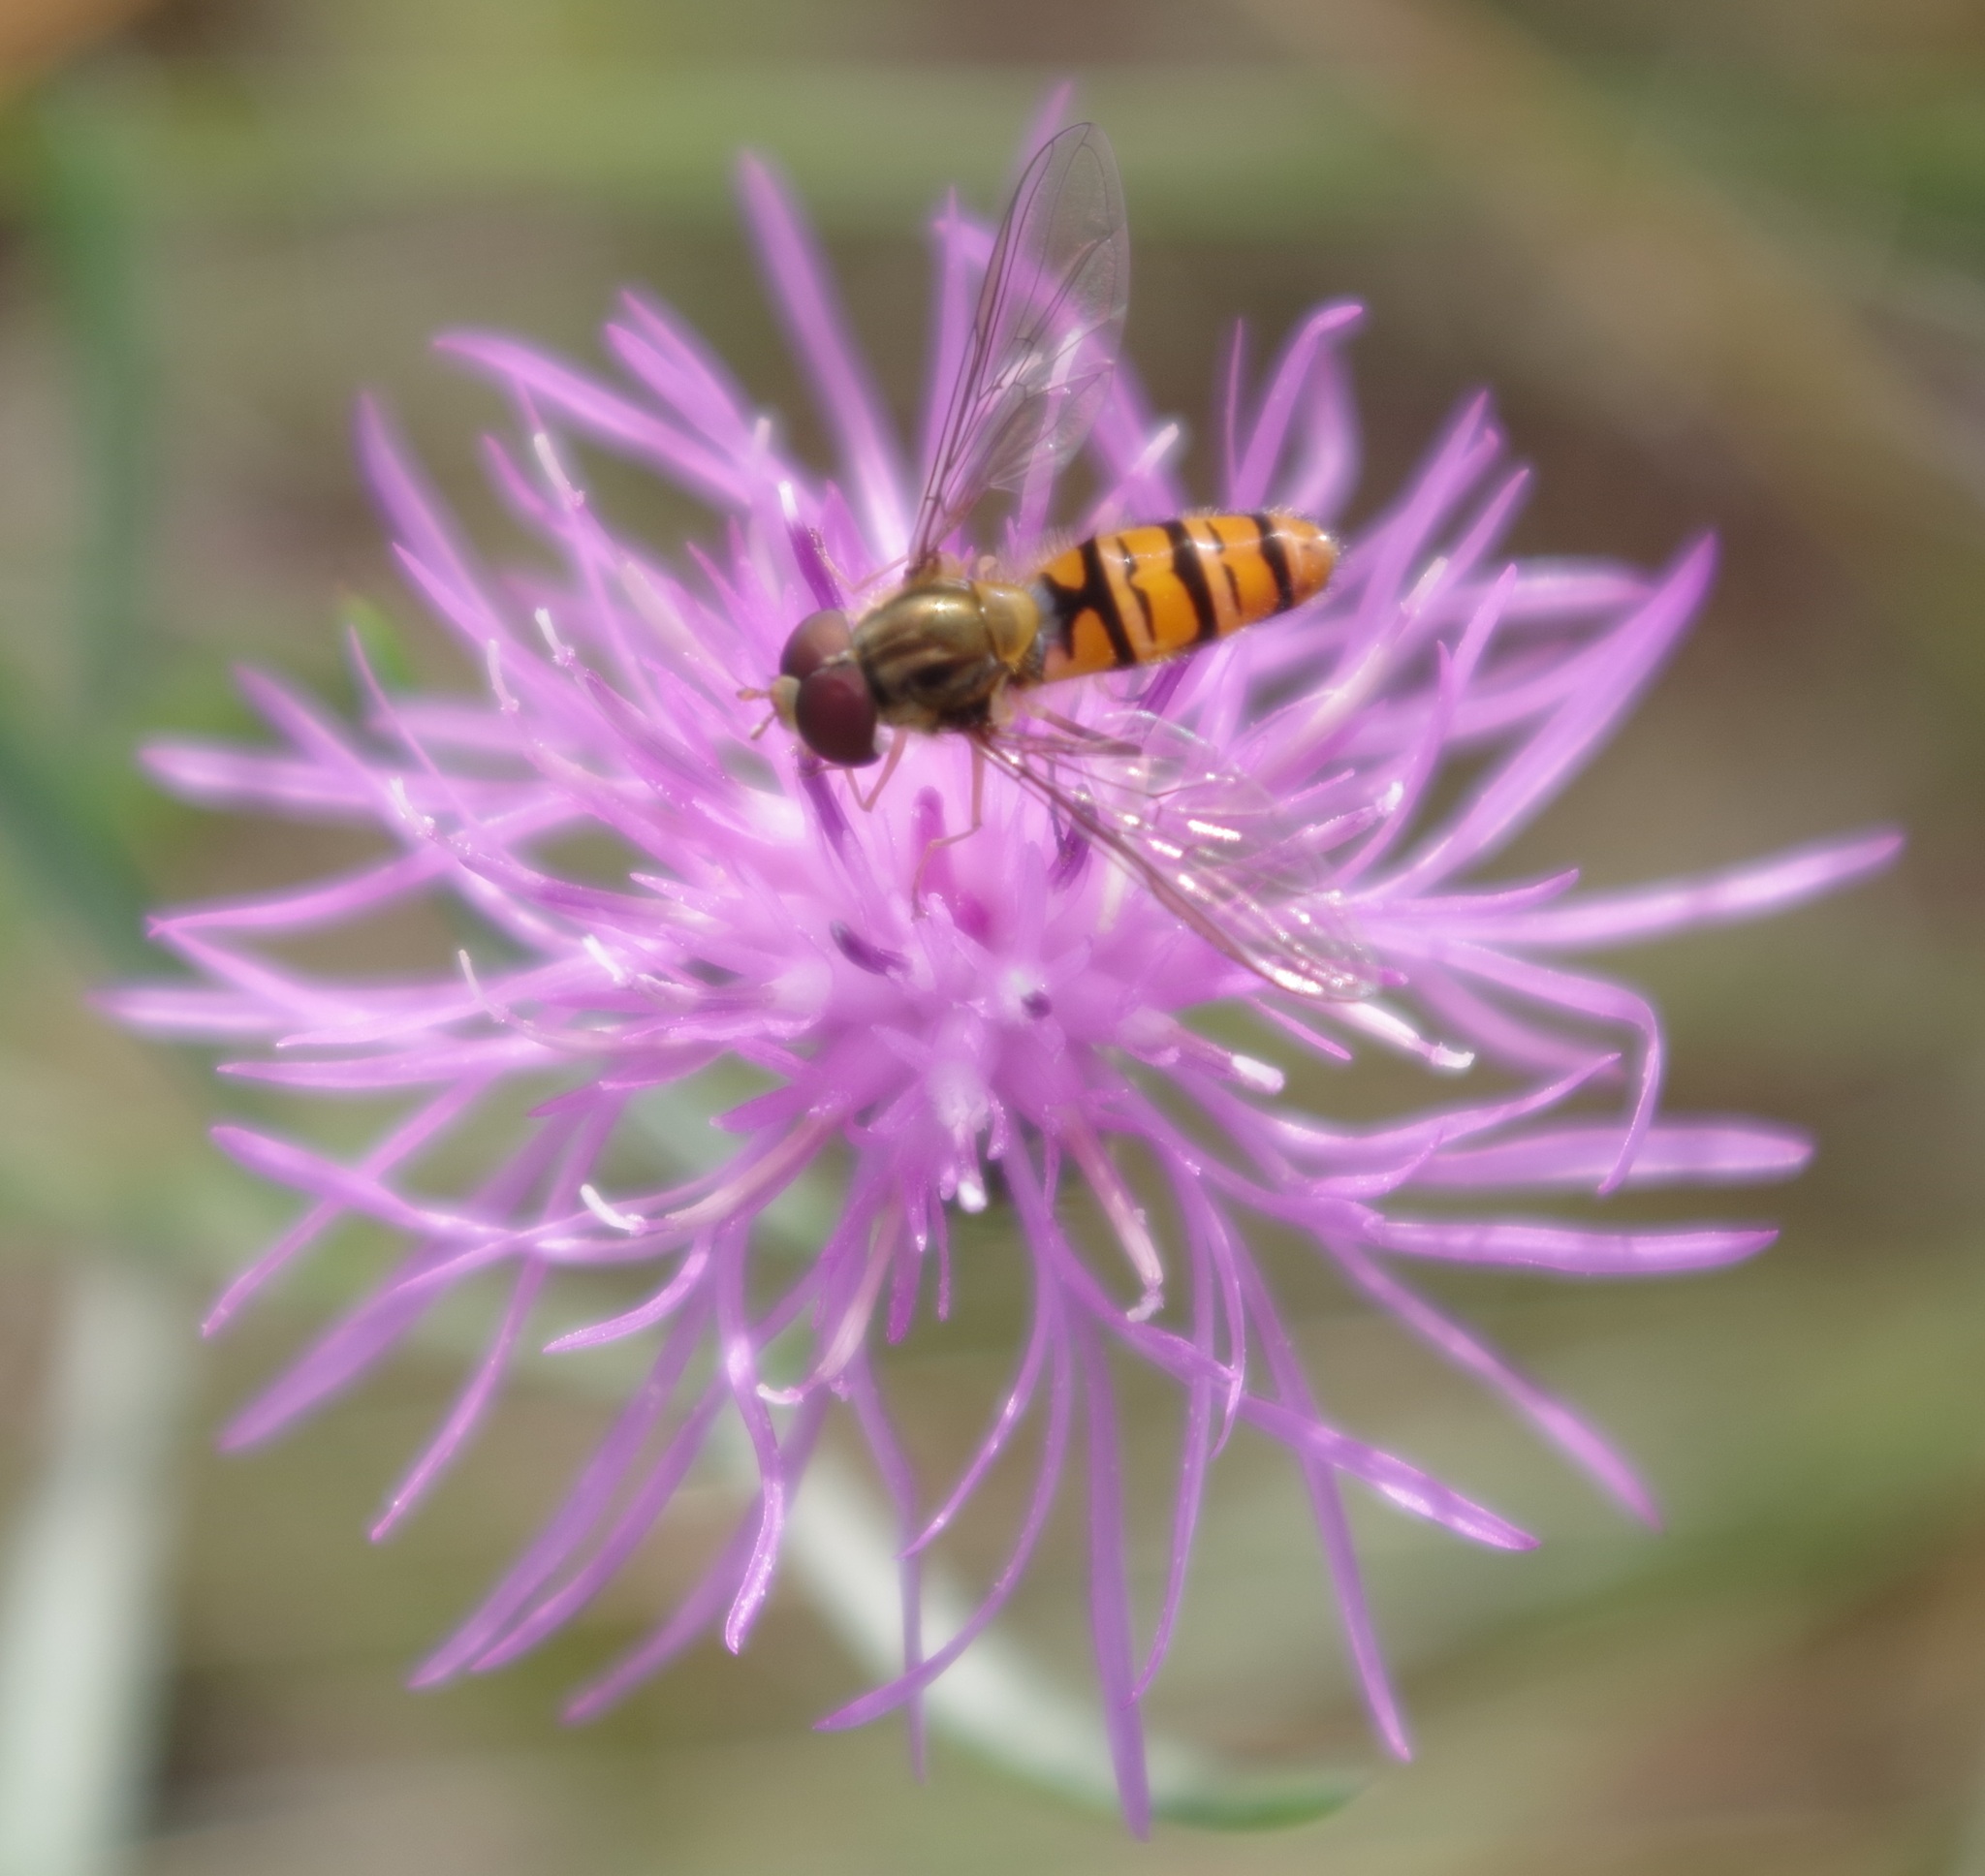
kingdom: Animalia
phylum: Arthropoda
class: Insecta
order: Diptera
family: Syrphidae
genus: Episyrphus
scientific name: Episyrphus balteatus
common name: Marmalade hoverfly
